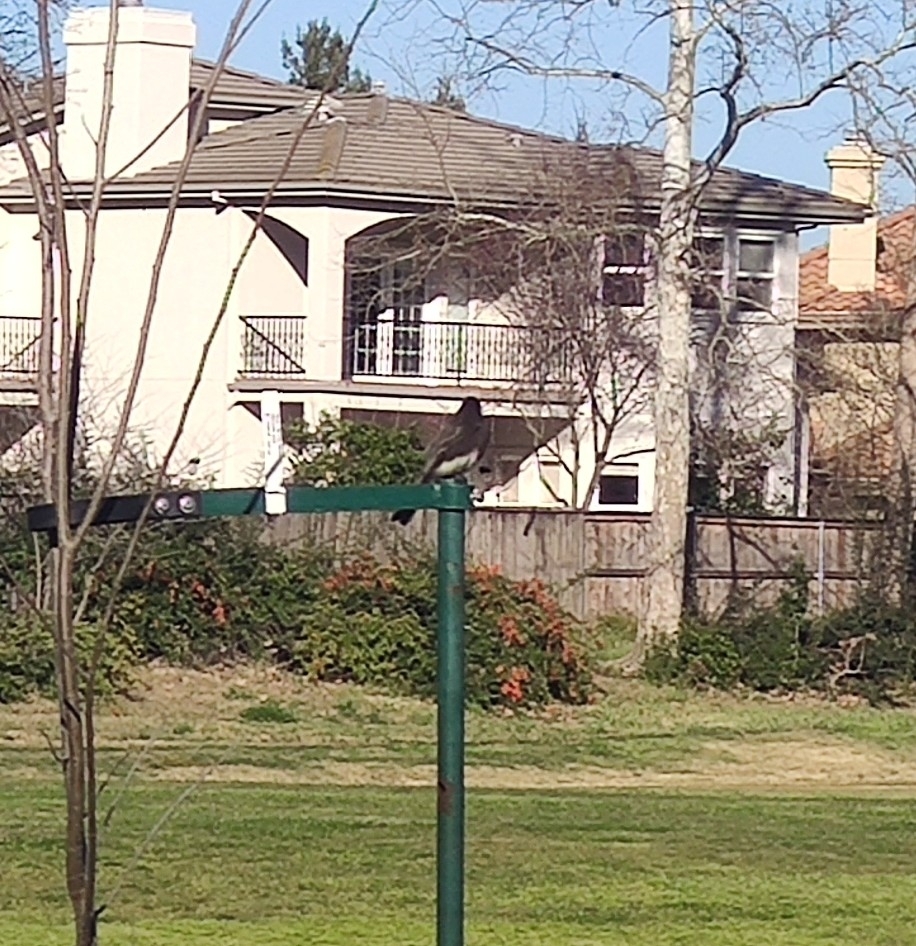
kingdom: Animalia
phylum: Chordata
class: Aves
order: Passeriformes
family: Tyrannidae
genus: Sayornis
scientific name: Sayornis nigricans
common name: Black phoebe
